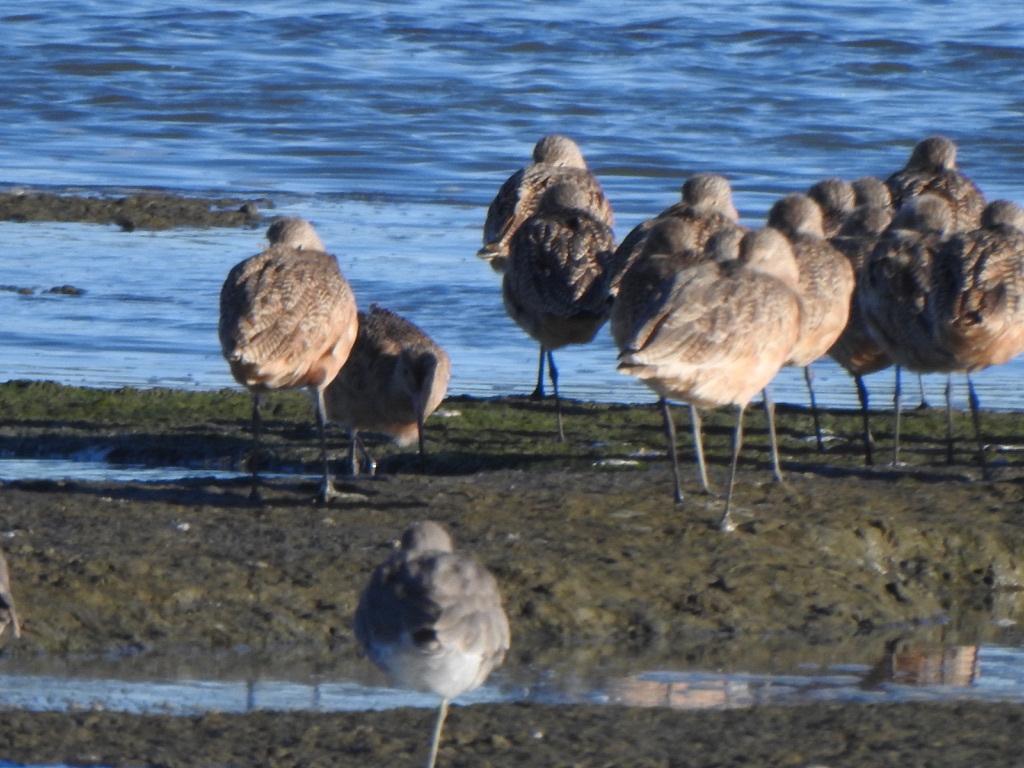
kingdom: Animalia
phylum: Chordata
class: Aves
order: Charadriiformes
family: Scolopacidae
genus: Limosa
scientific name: Limosa fedoa
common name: Marbled godwit
